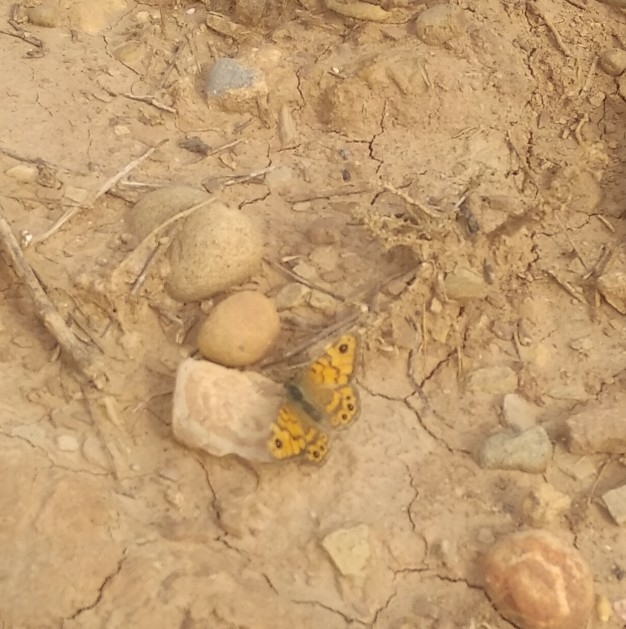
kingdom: Animalia
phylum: Arthropoda
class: Insecta
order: Lepidoptera
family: Nymphalidae
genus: Pararge
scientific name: Pararge Lasiommata megera
